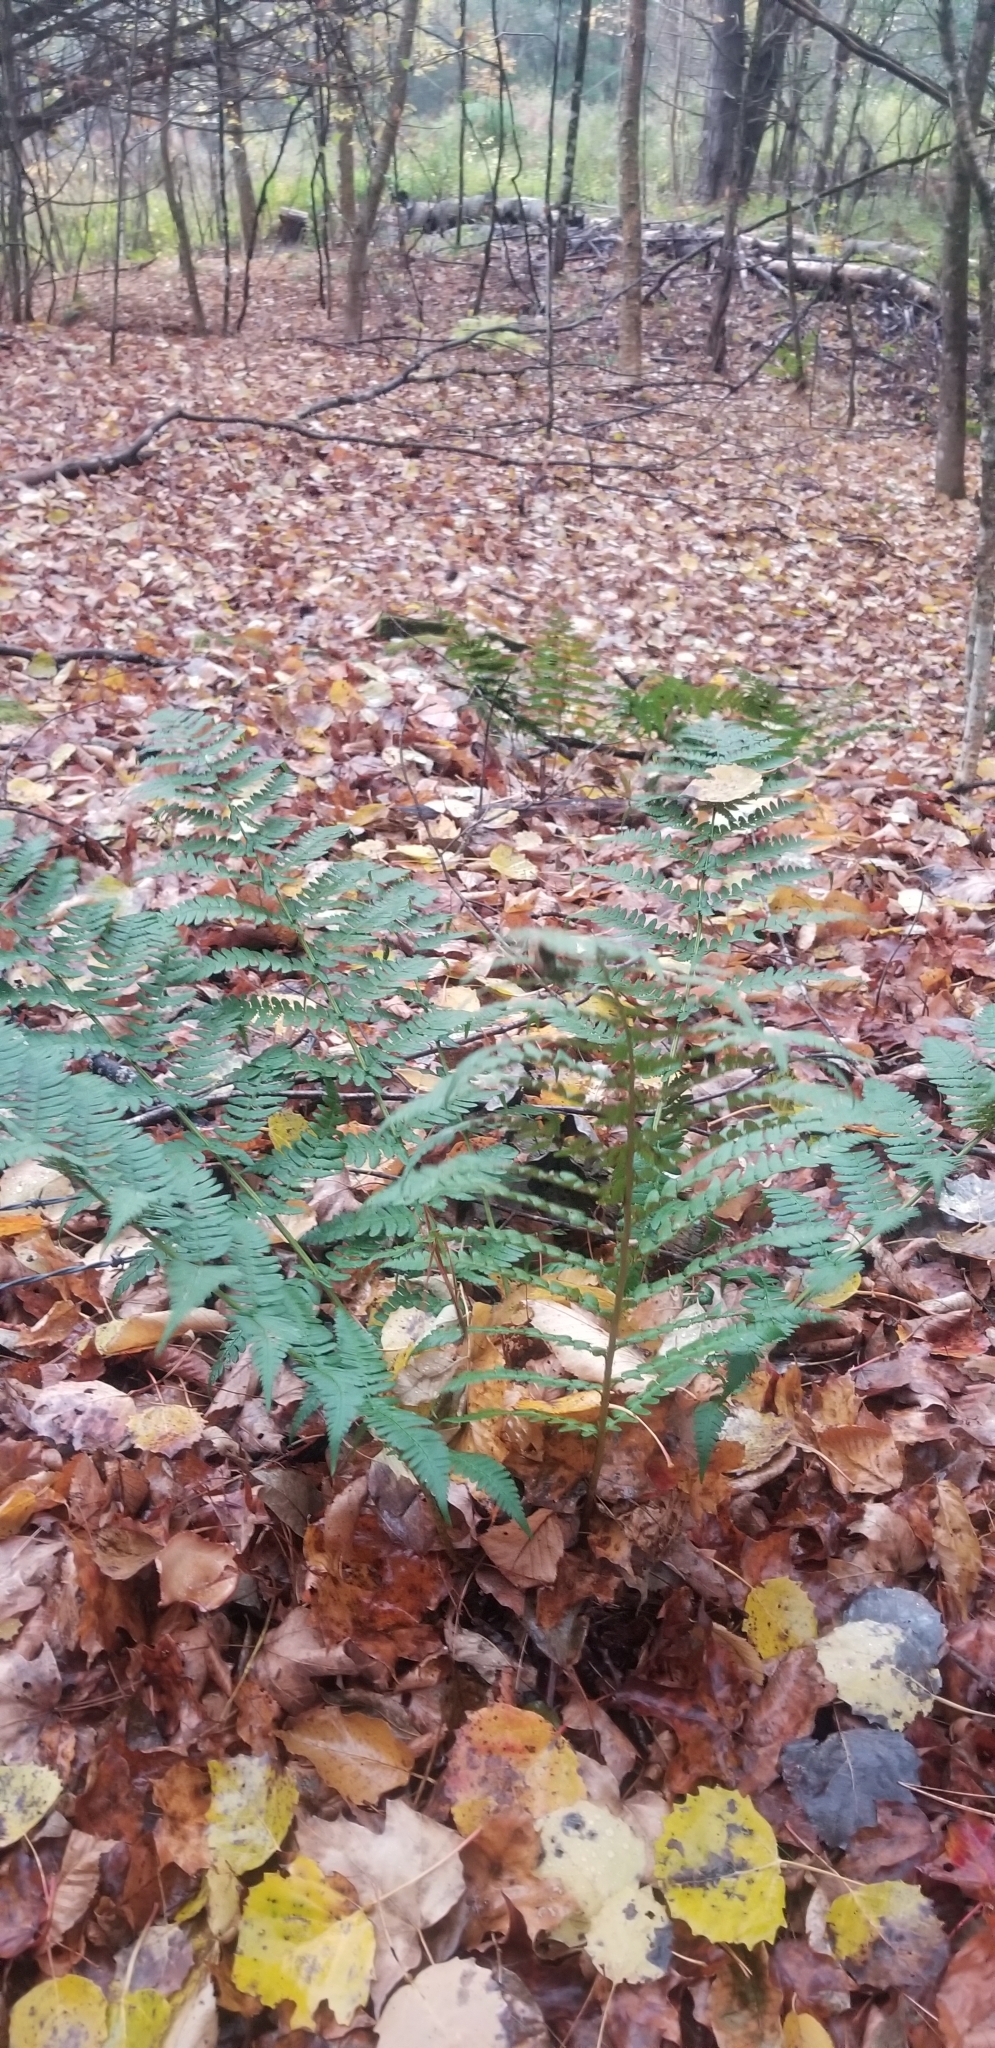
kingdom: Plantae
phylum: Tracheophyta
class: Polypodiopsida
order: Polypodiales
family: Dryopteridaceae
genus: Dryopteris
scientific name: Dryopteris marginalis
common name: Marginal wood fern
